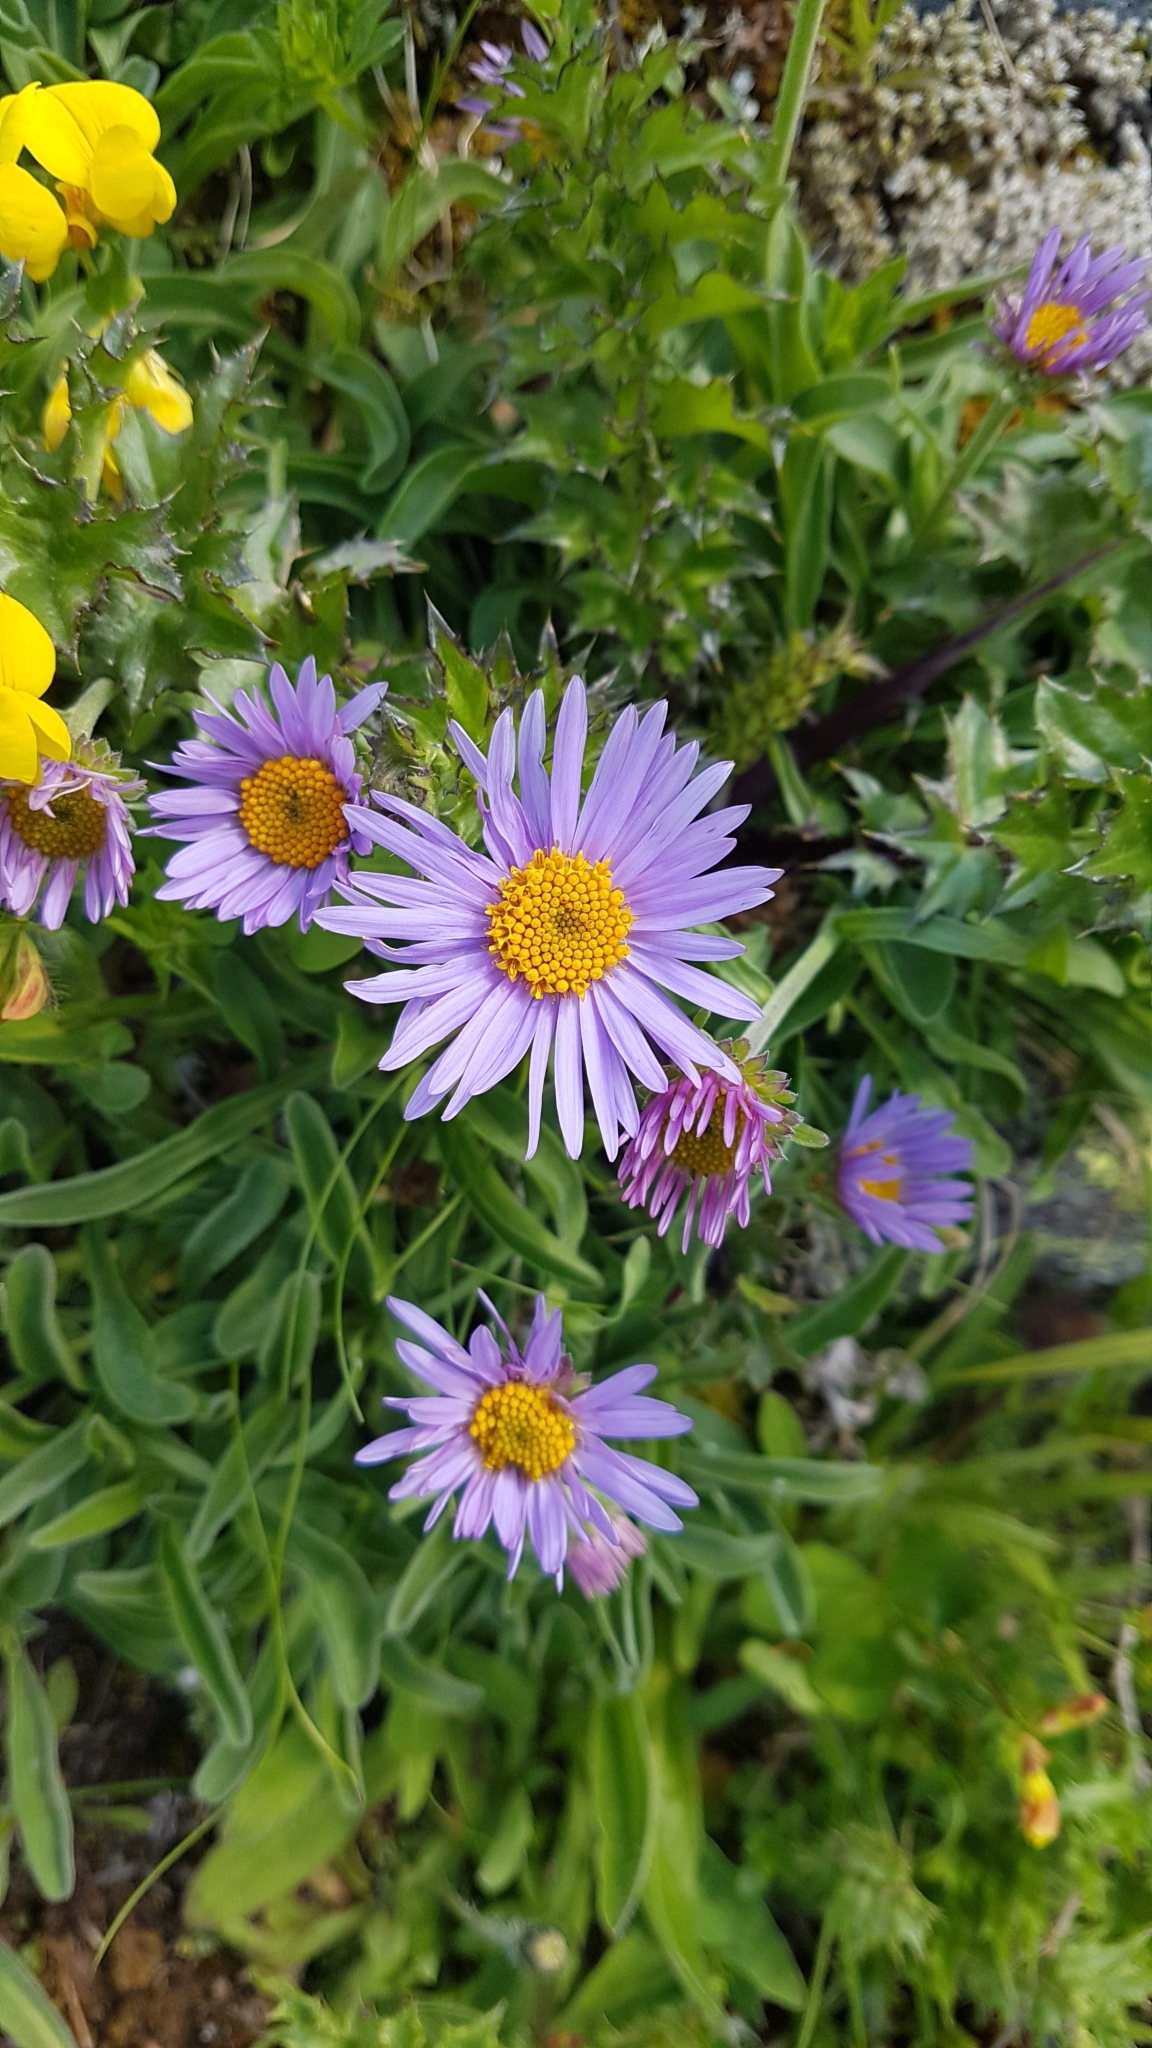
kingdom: Plantae
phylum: Tracheophyta
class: Magnoliopsida
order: Asterales
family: Asteraceae
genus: Aster
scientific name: Aster alpinus
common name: Alpine aster
